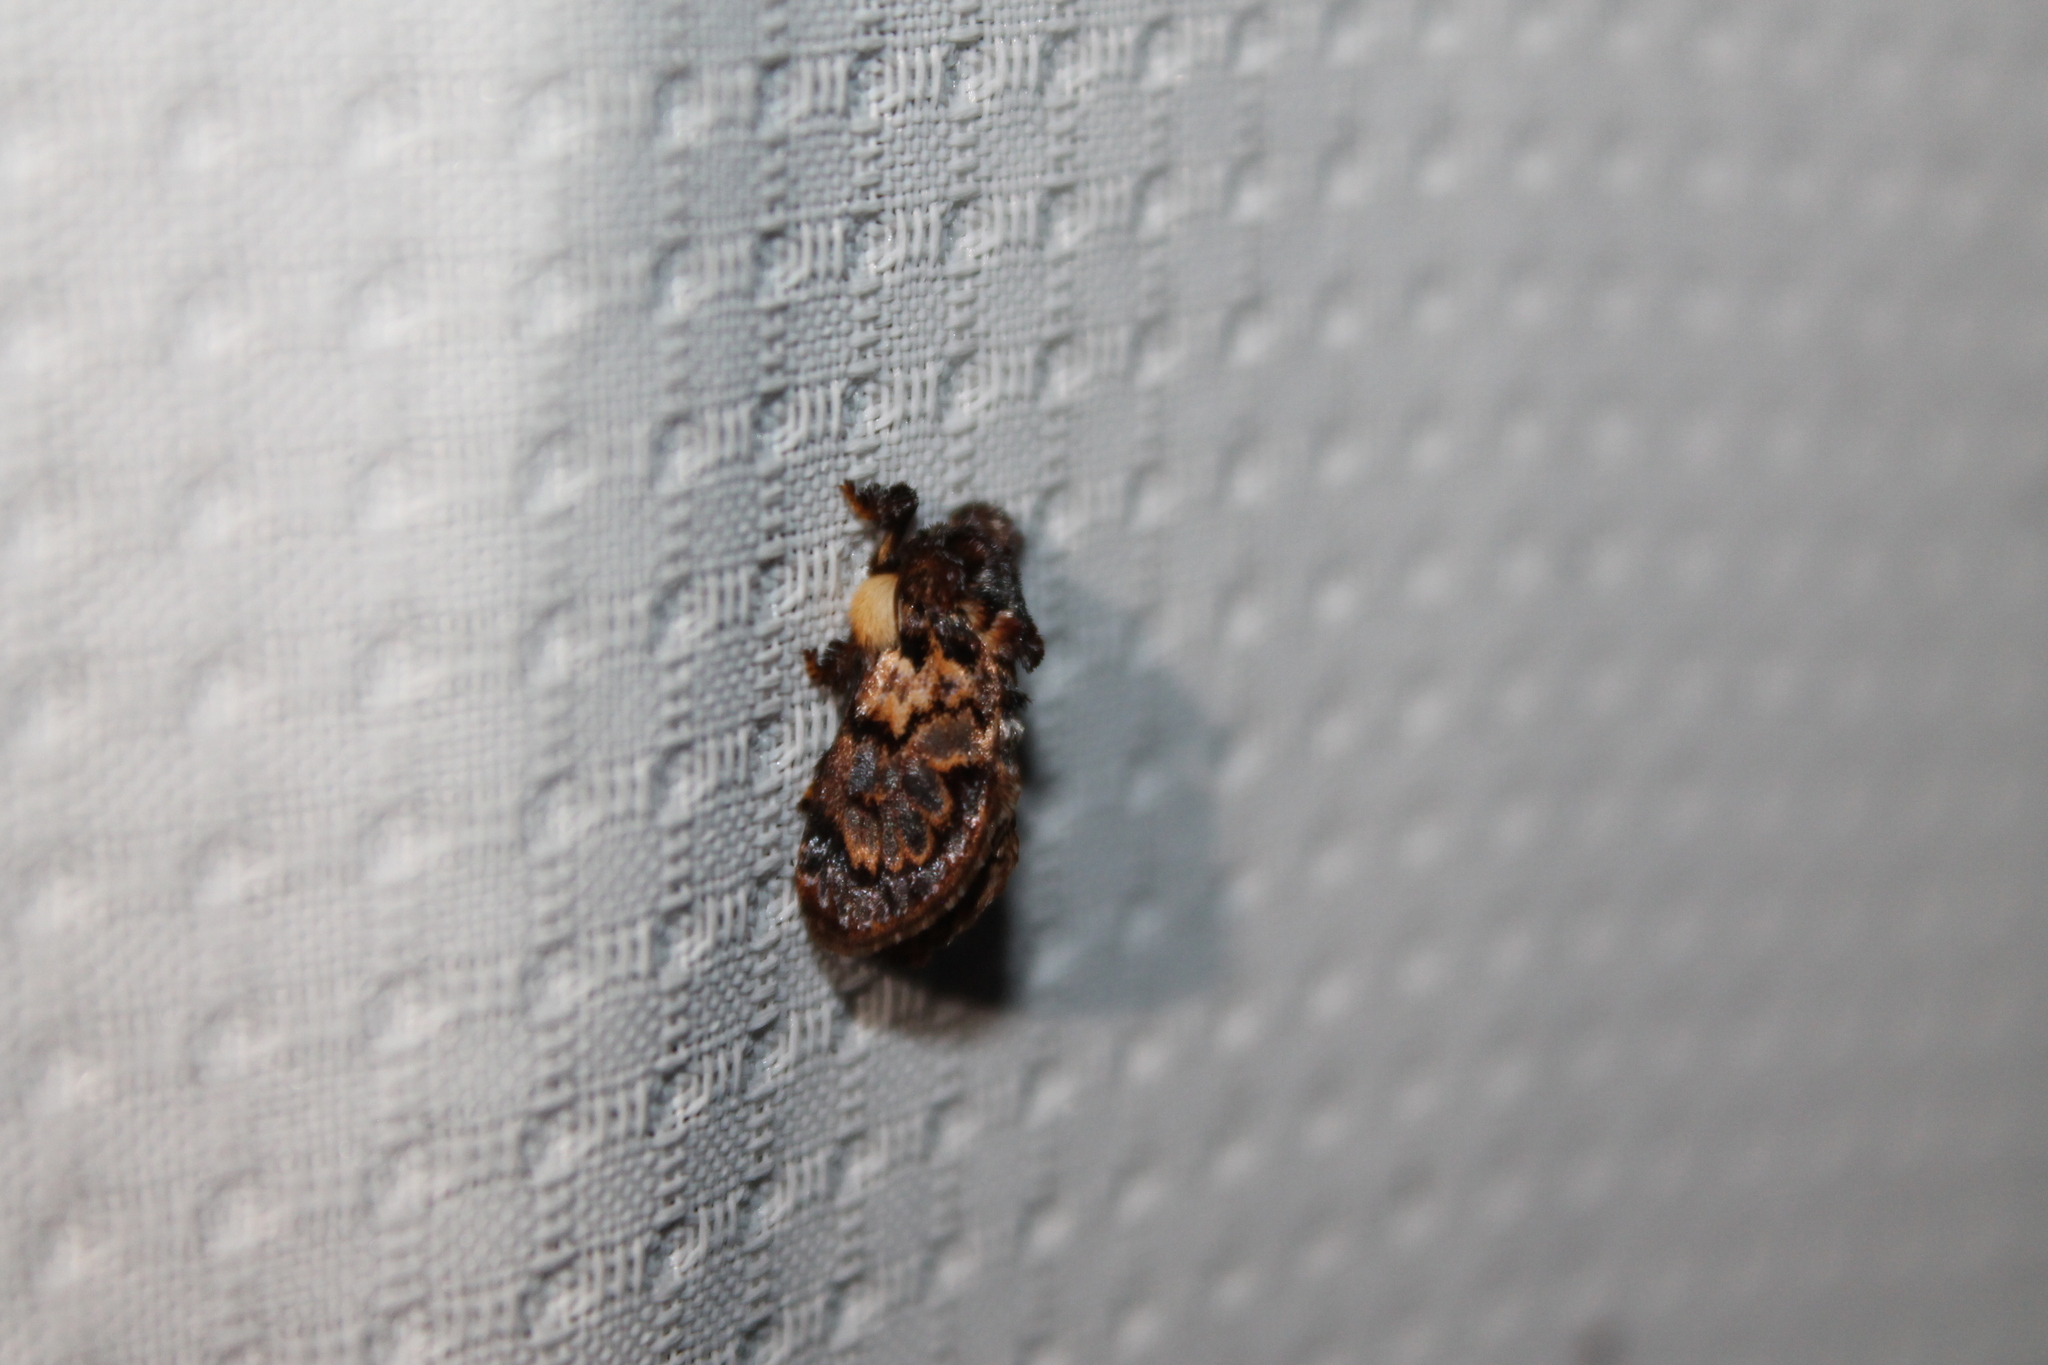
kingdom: Animalia
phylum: Arthropoda
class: Insecta
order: Lepidoptera
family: Limacodidae
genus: Phobetron
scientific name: Phobetron pithecium
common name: Hag moth
